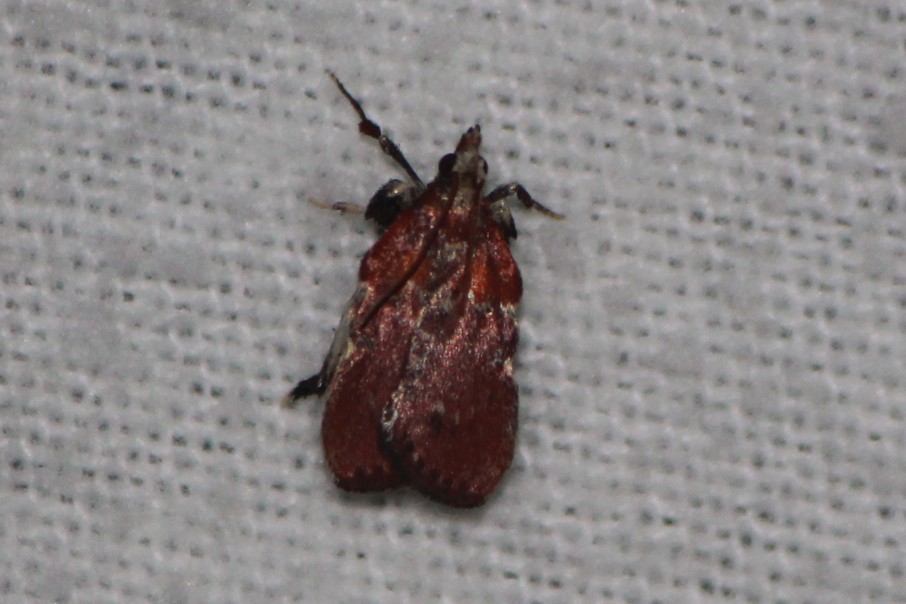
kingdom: Animalia
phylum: Arthropoda
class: Insecta
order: Lepidoptera
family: Pyralidae
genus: Galasa
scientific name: Galasa nigrinodis
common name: Boxwood leaftier moth
